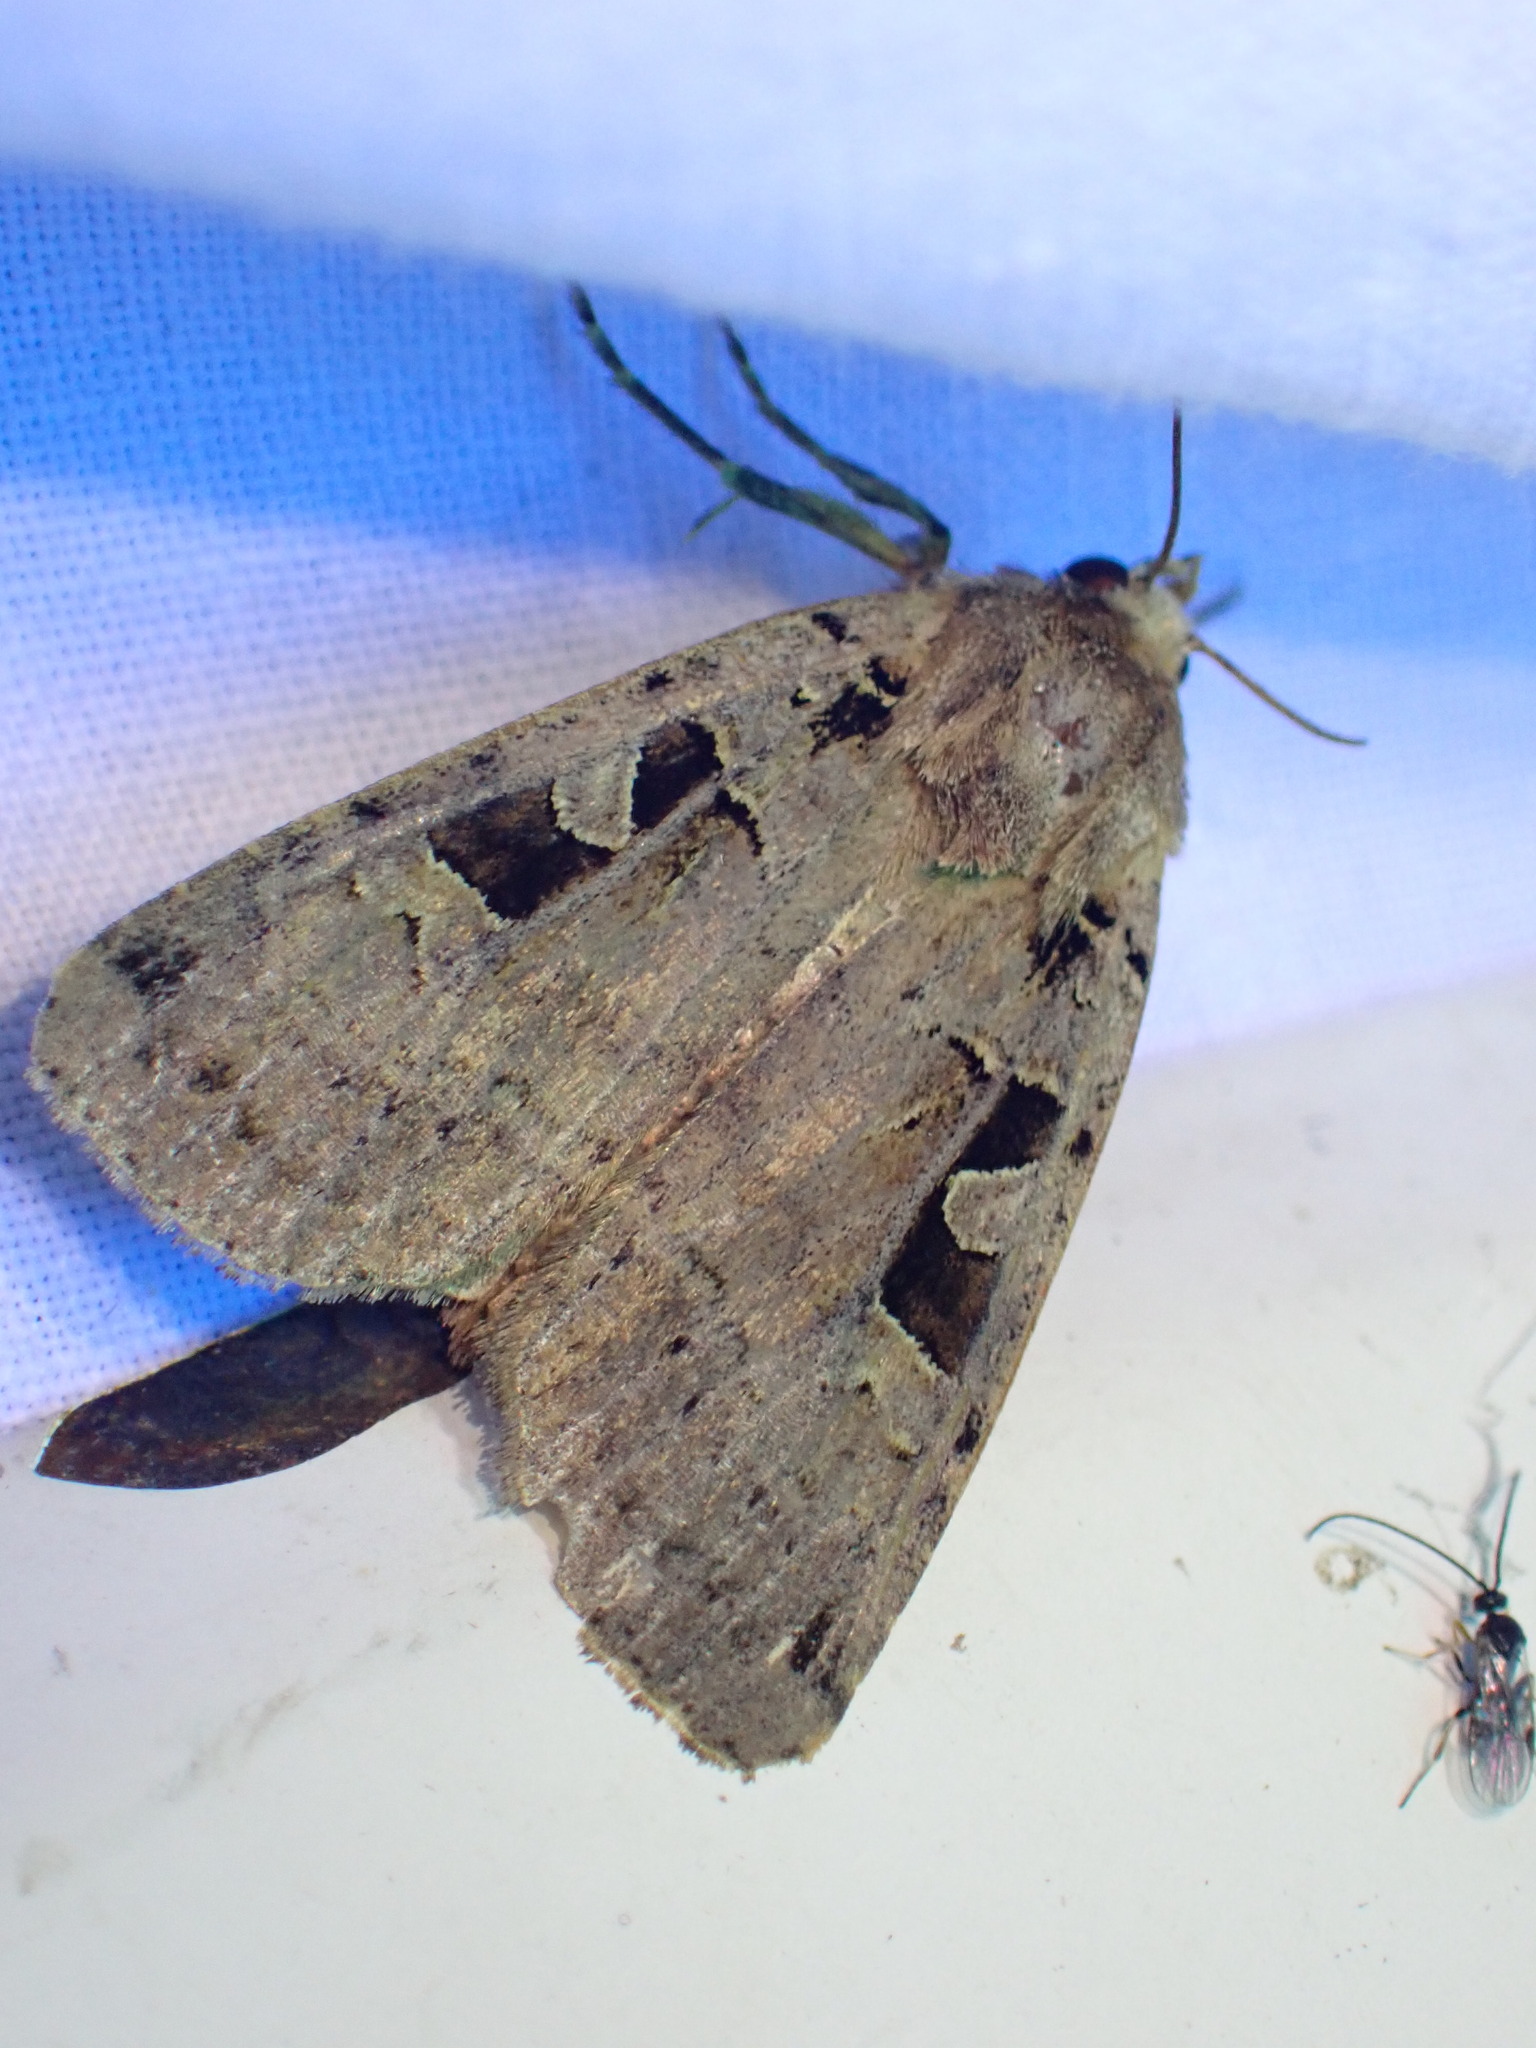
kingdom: Animalia
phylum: Arthropoda
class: Insecta
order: Lepidoptera
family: Noctuidae
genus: Xestia
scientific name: Xestia triangulum
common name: Double square-spot
